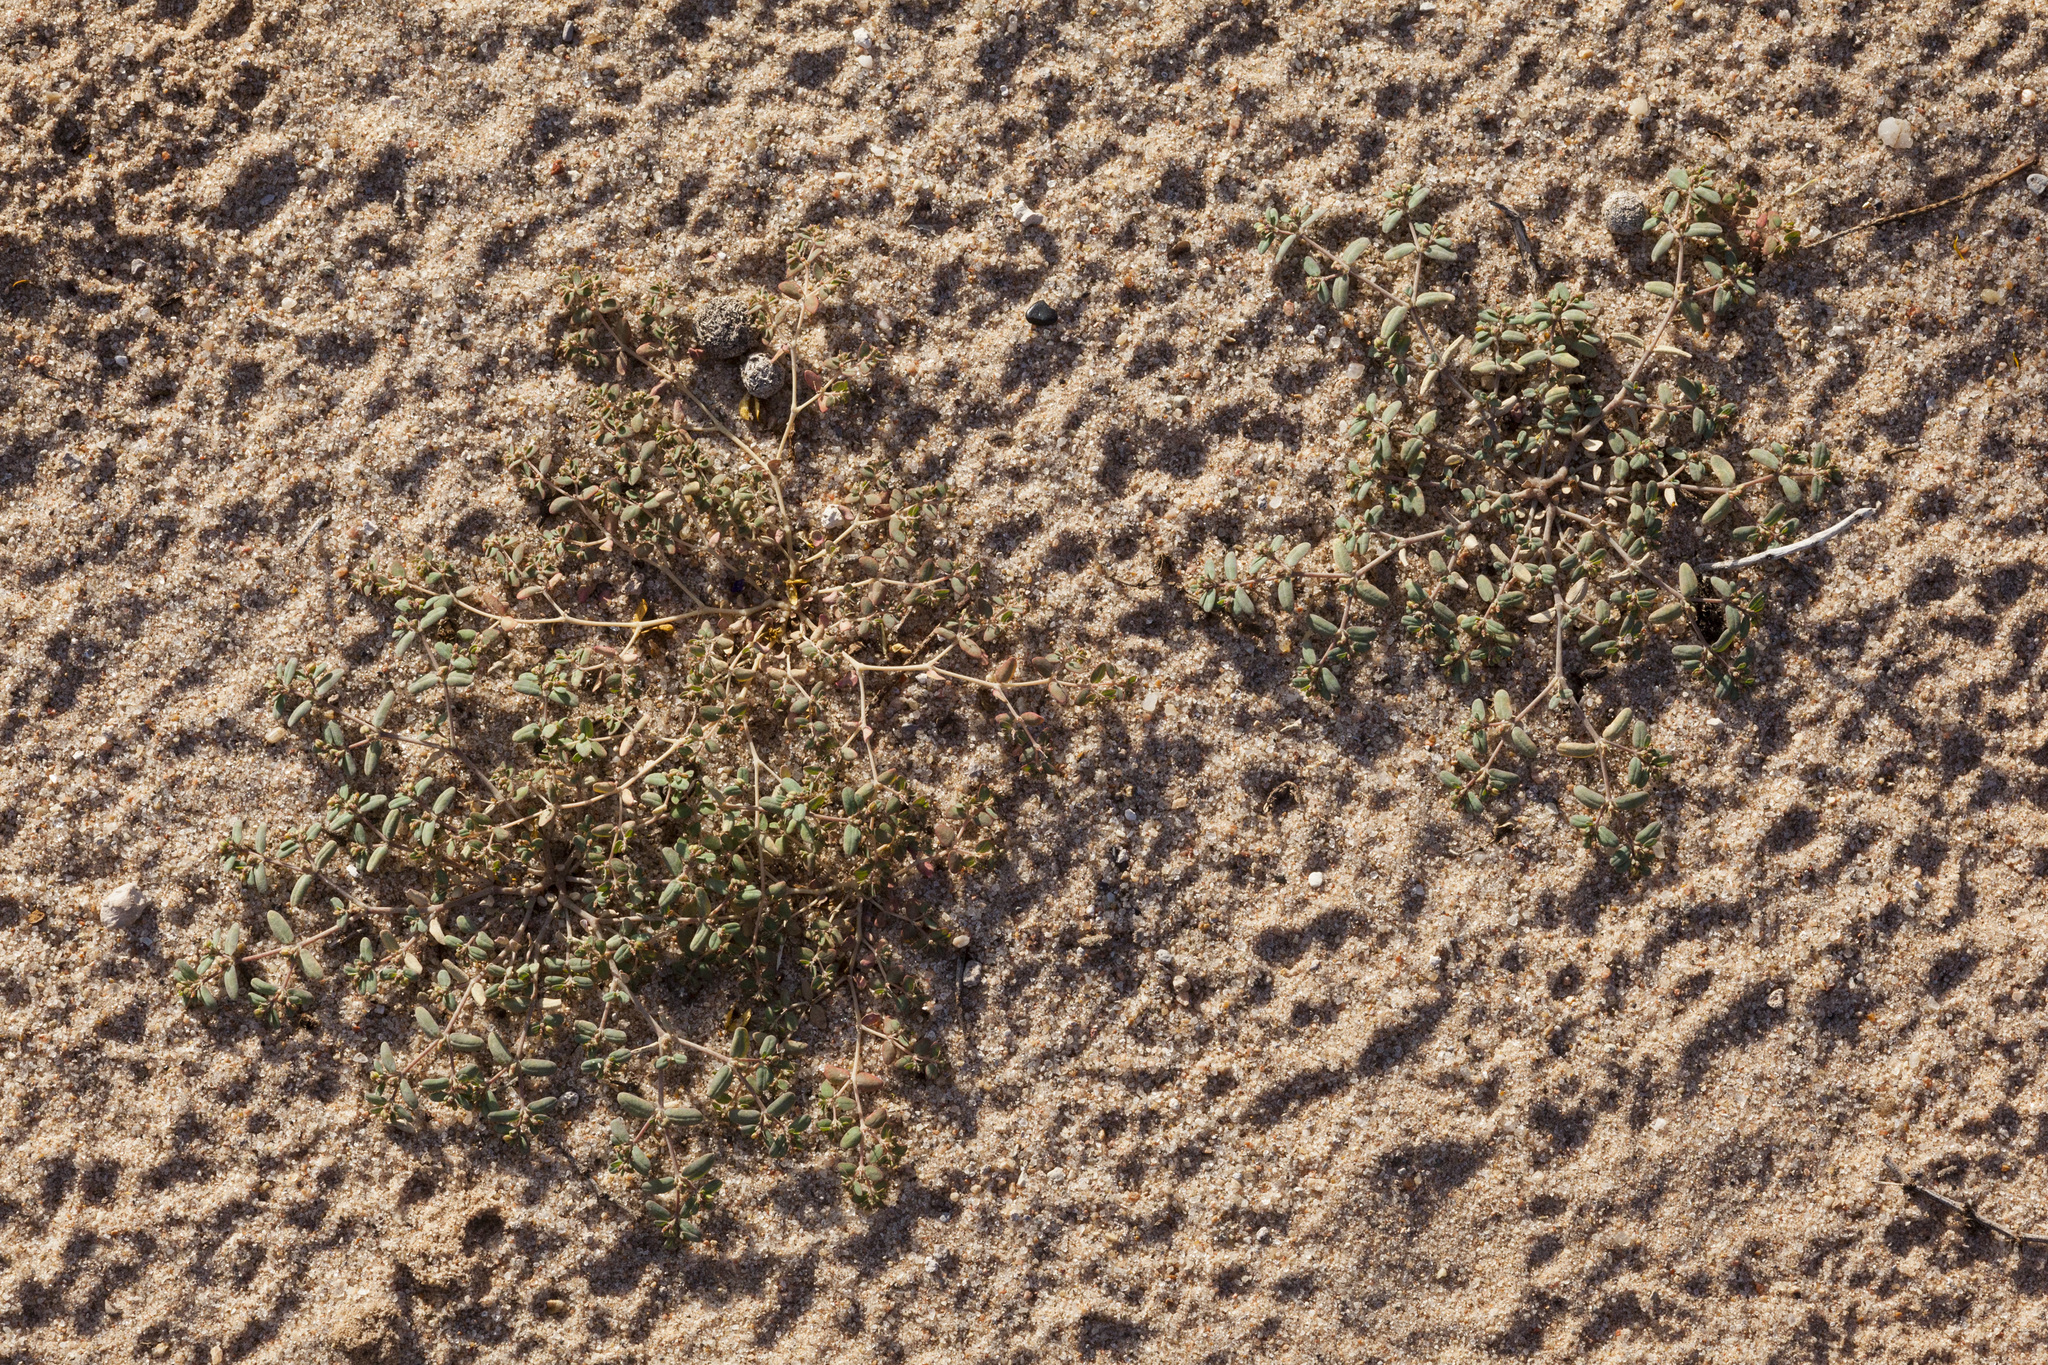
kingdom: Plantae
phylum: Tracheophyta
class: Magnoliopsida
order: Malpighiales
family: Euphorbiaceae
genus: Euphorbia
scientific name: Euphorbia golondrina
